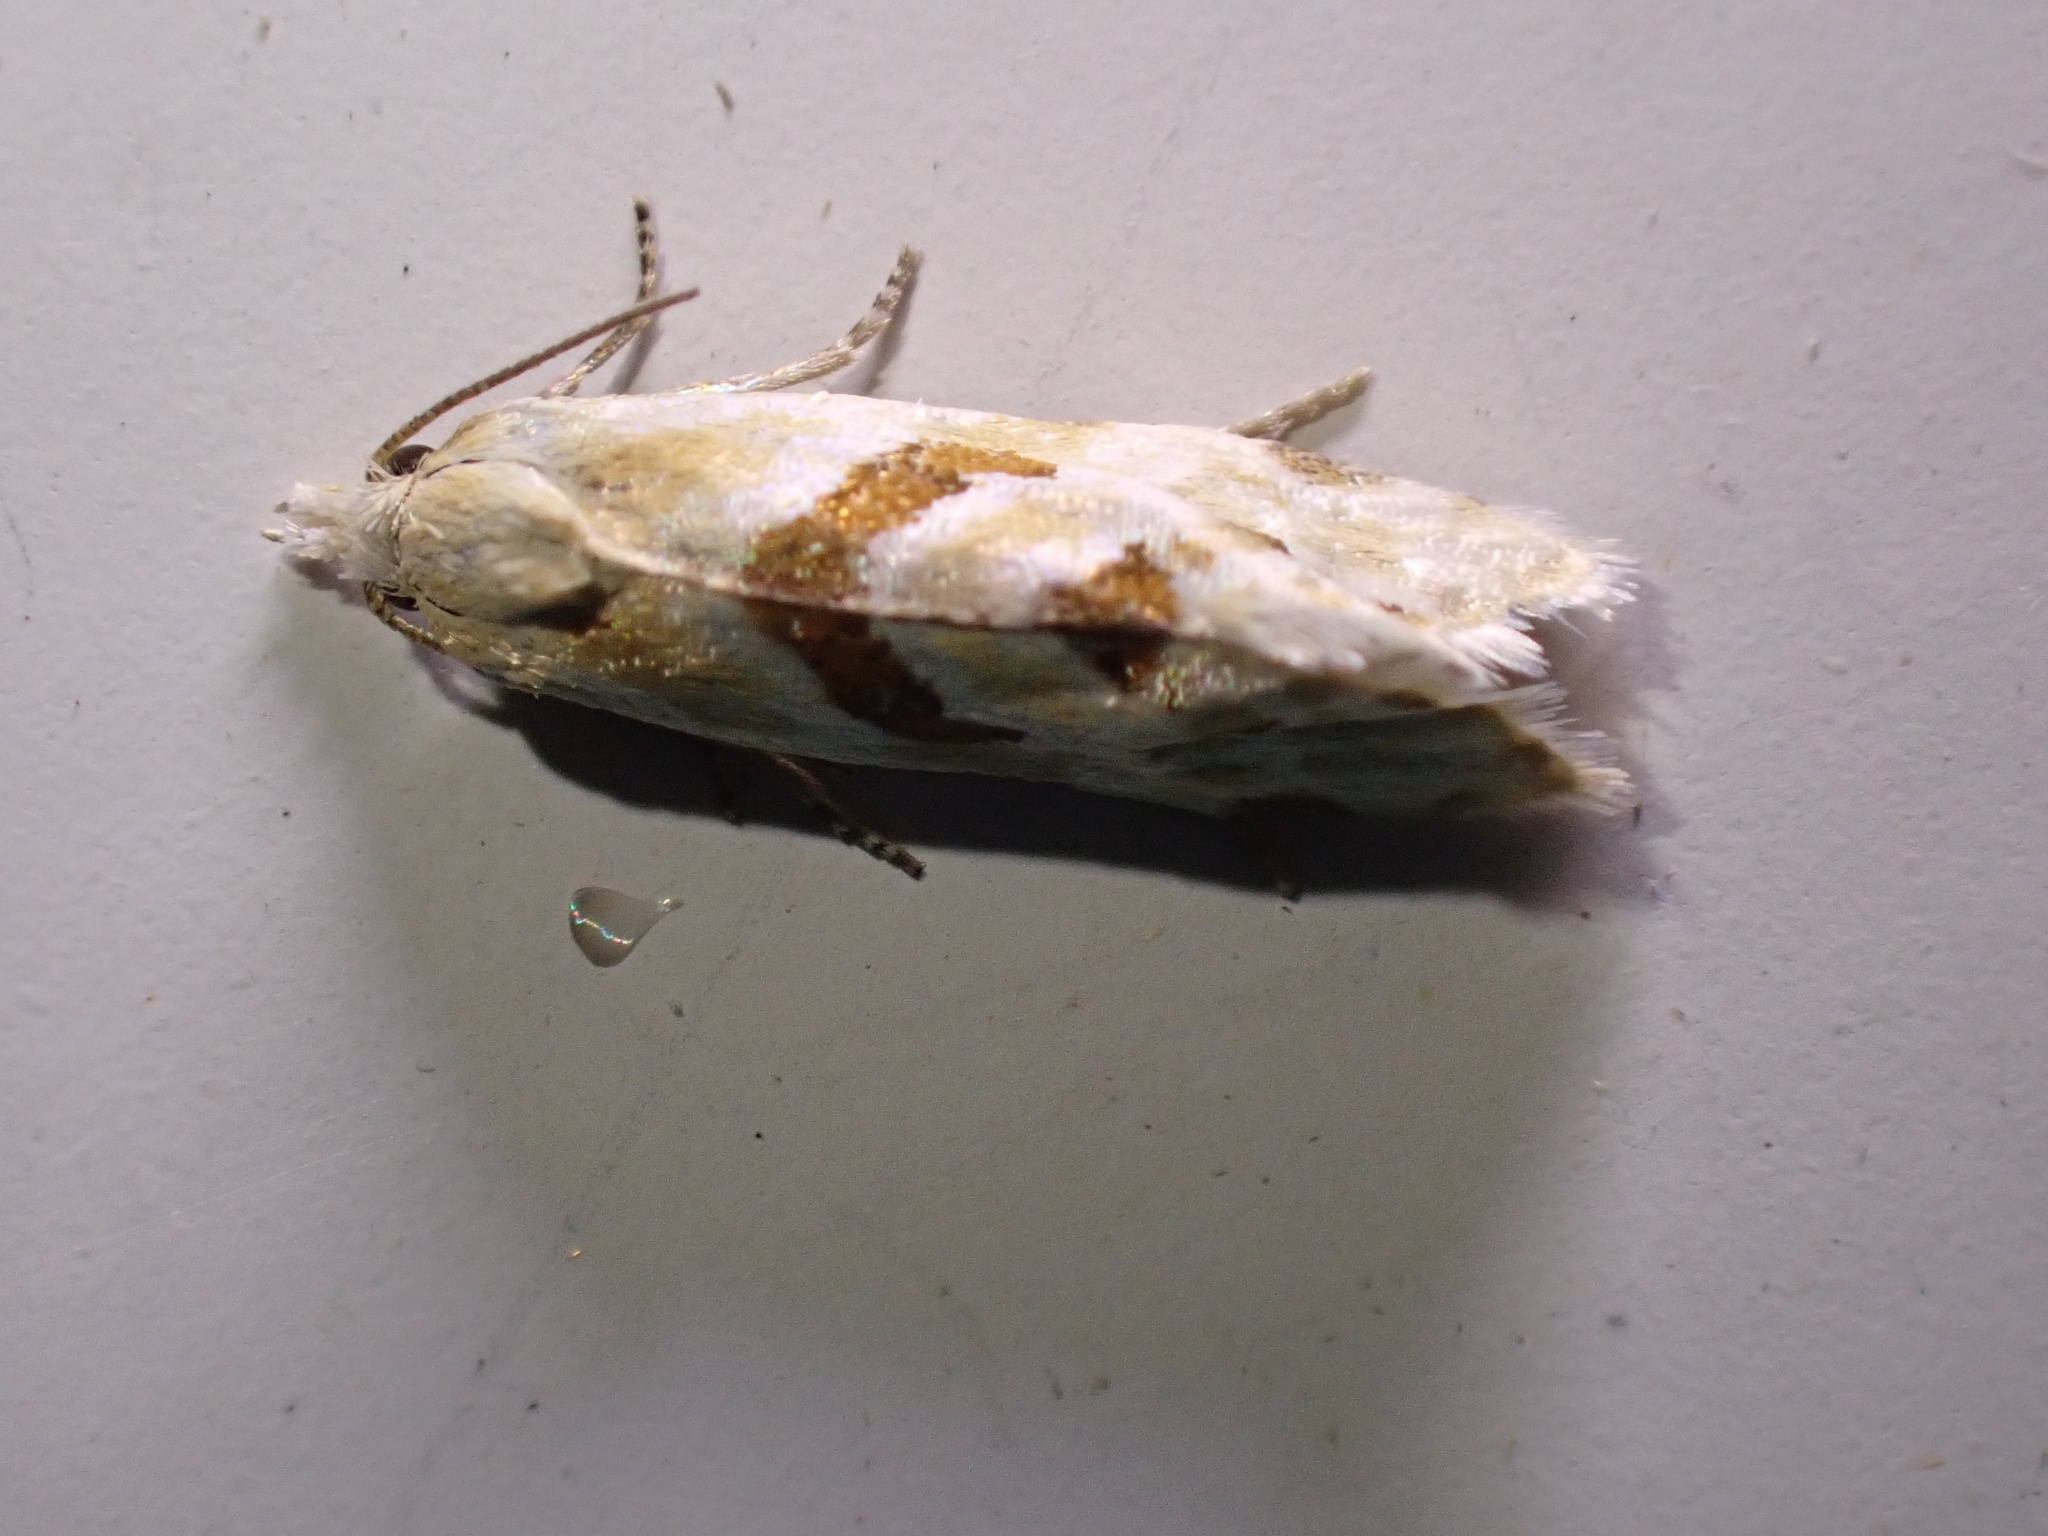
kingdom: Animalia
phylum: Arthropoda
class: Insecta
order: Lepidoptera
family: Tortricidae
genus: Aethes
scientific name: Aethes smeathmanniana
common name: Yarrow conch
